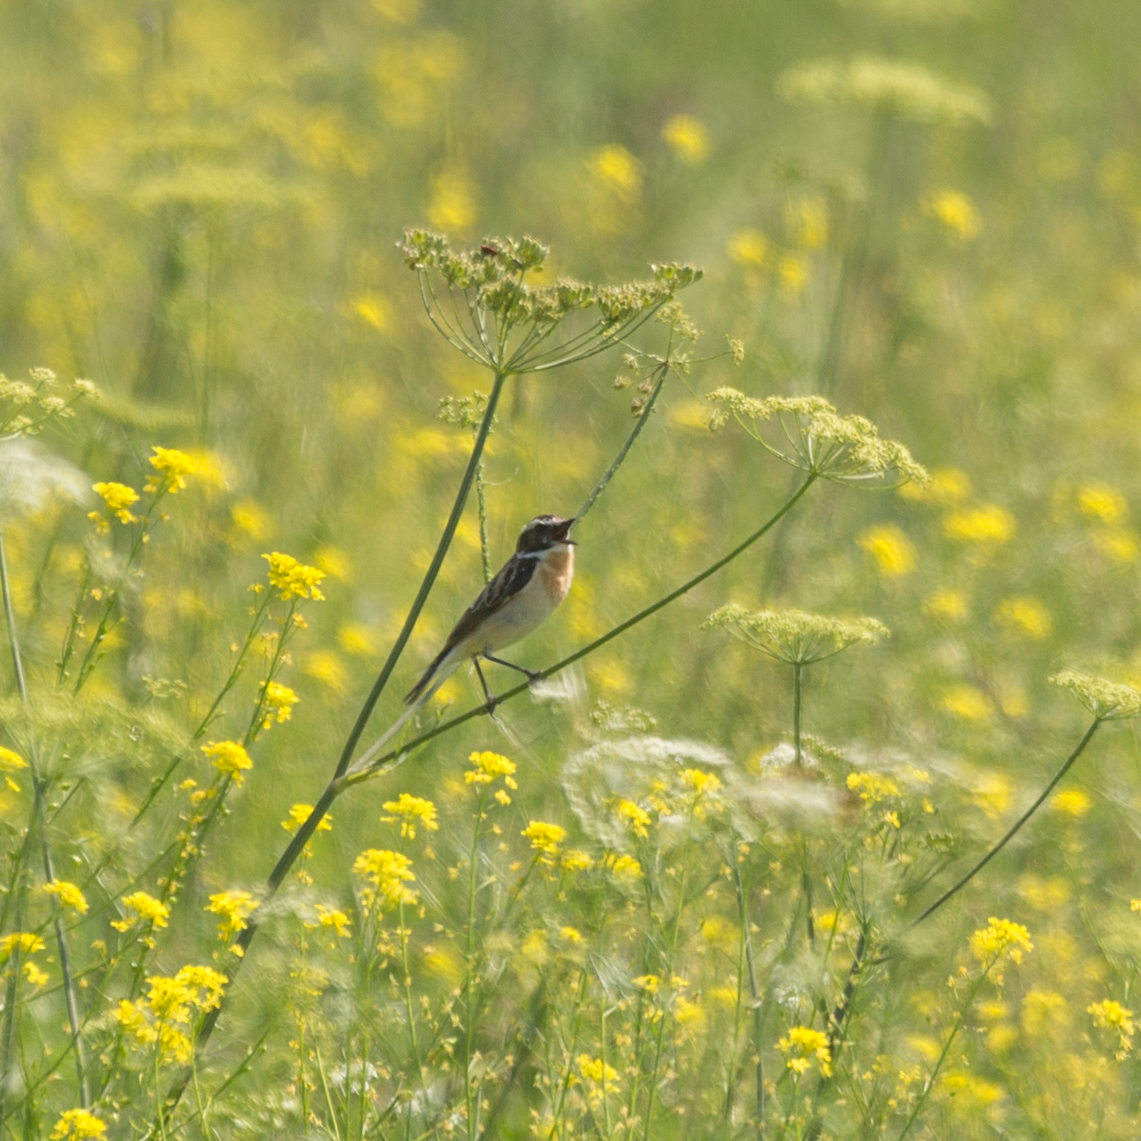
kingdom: Animalia
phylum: Chordata
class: Aves
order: Passeriformes
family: Muscicapidae
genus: Saxicola
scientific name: Saxicola rubetra
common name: Whinchat
